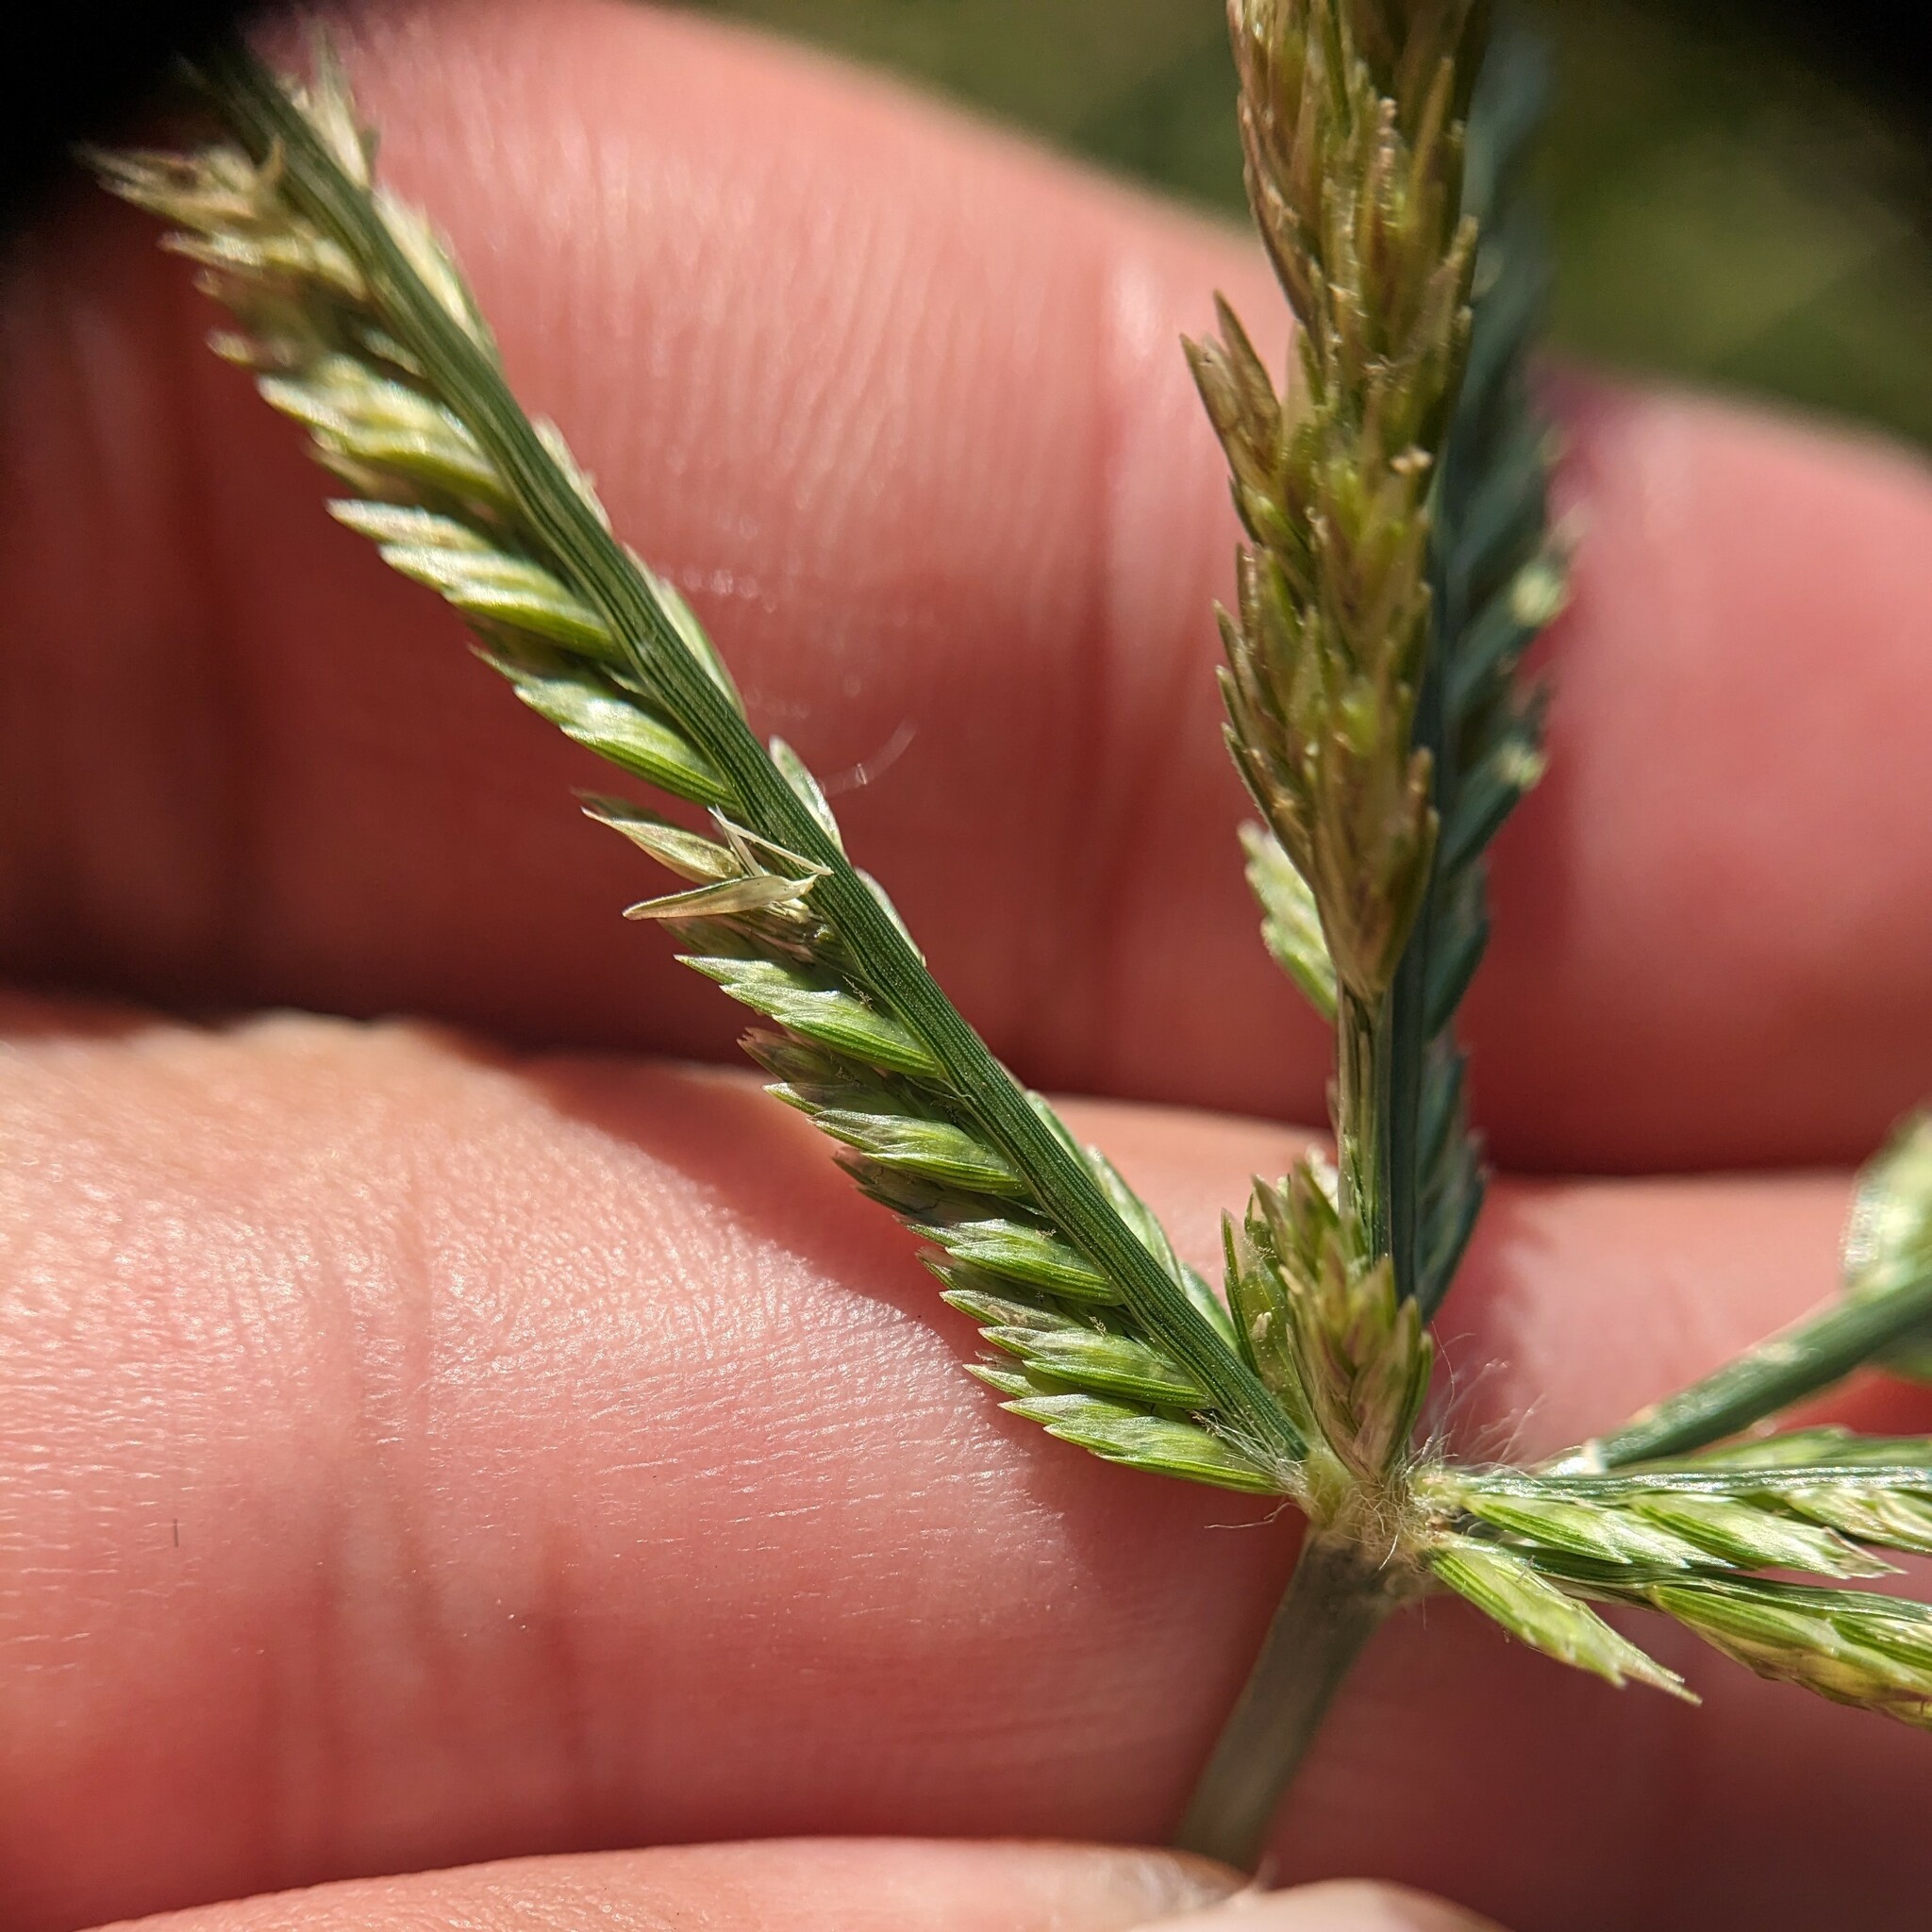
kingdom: Plantae
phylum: Tracheophyta
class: Liliopsida
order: Poales
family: Poaceae
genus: Eleusine
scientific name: Eleusine indica
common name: Yard-grass
